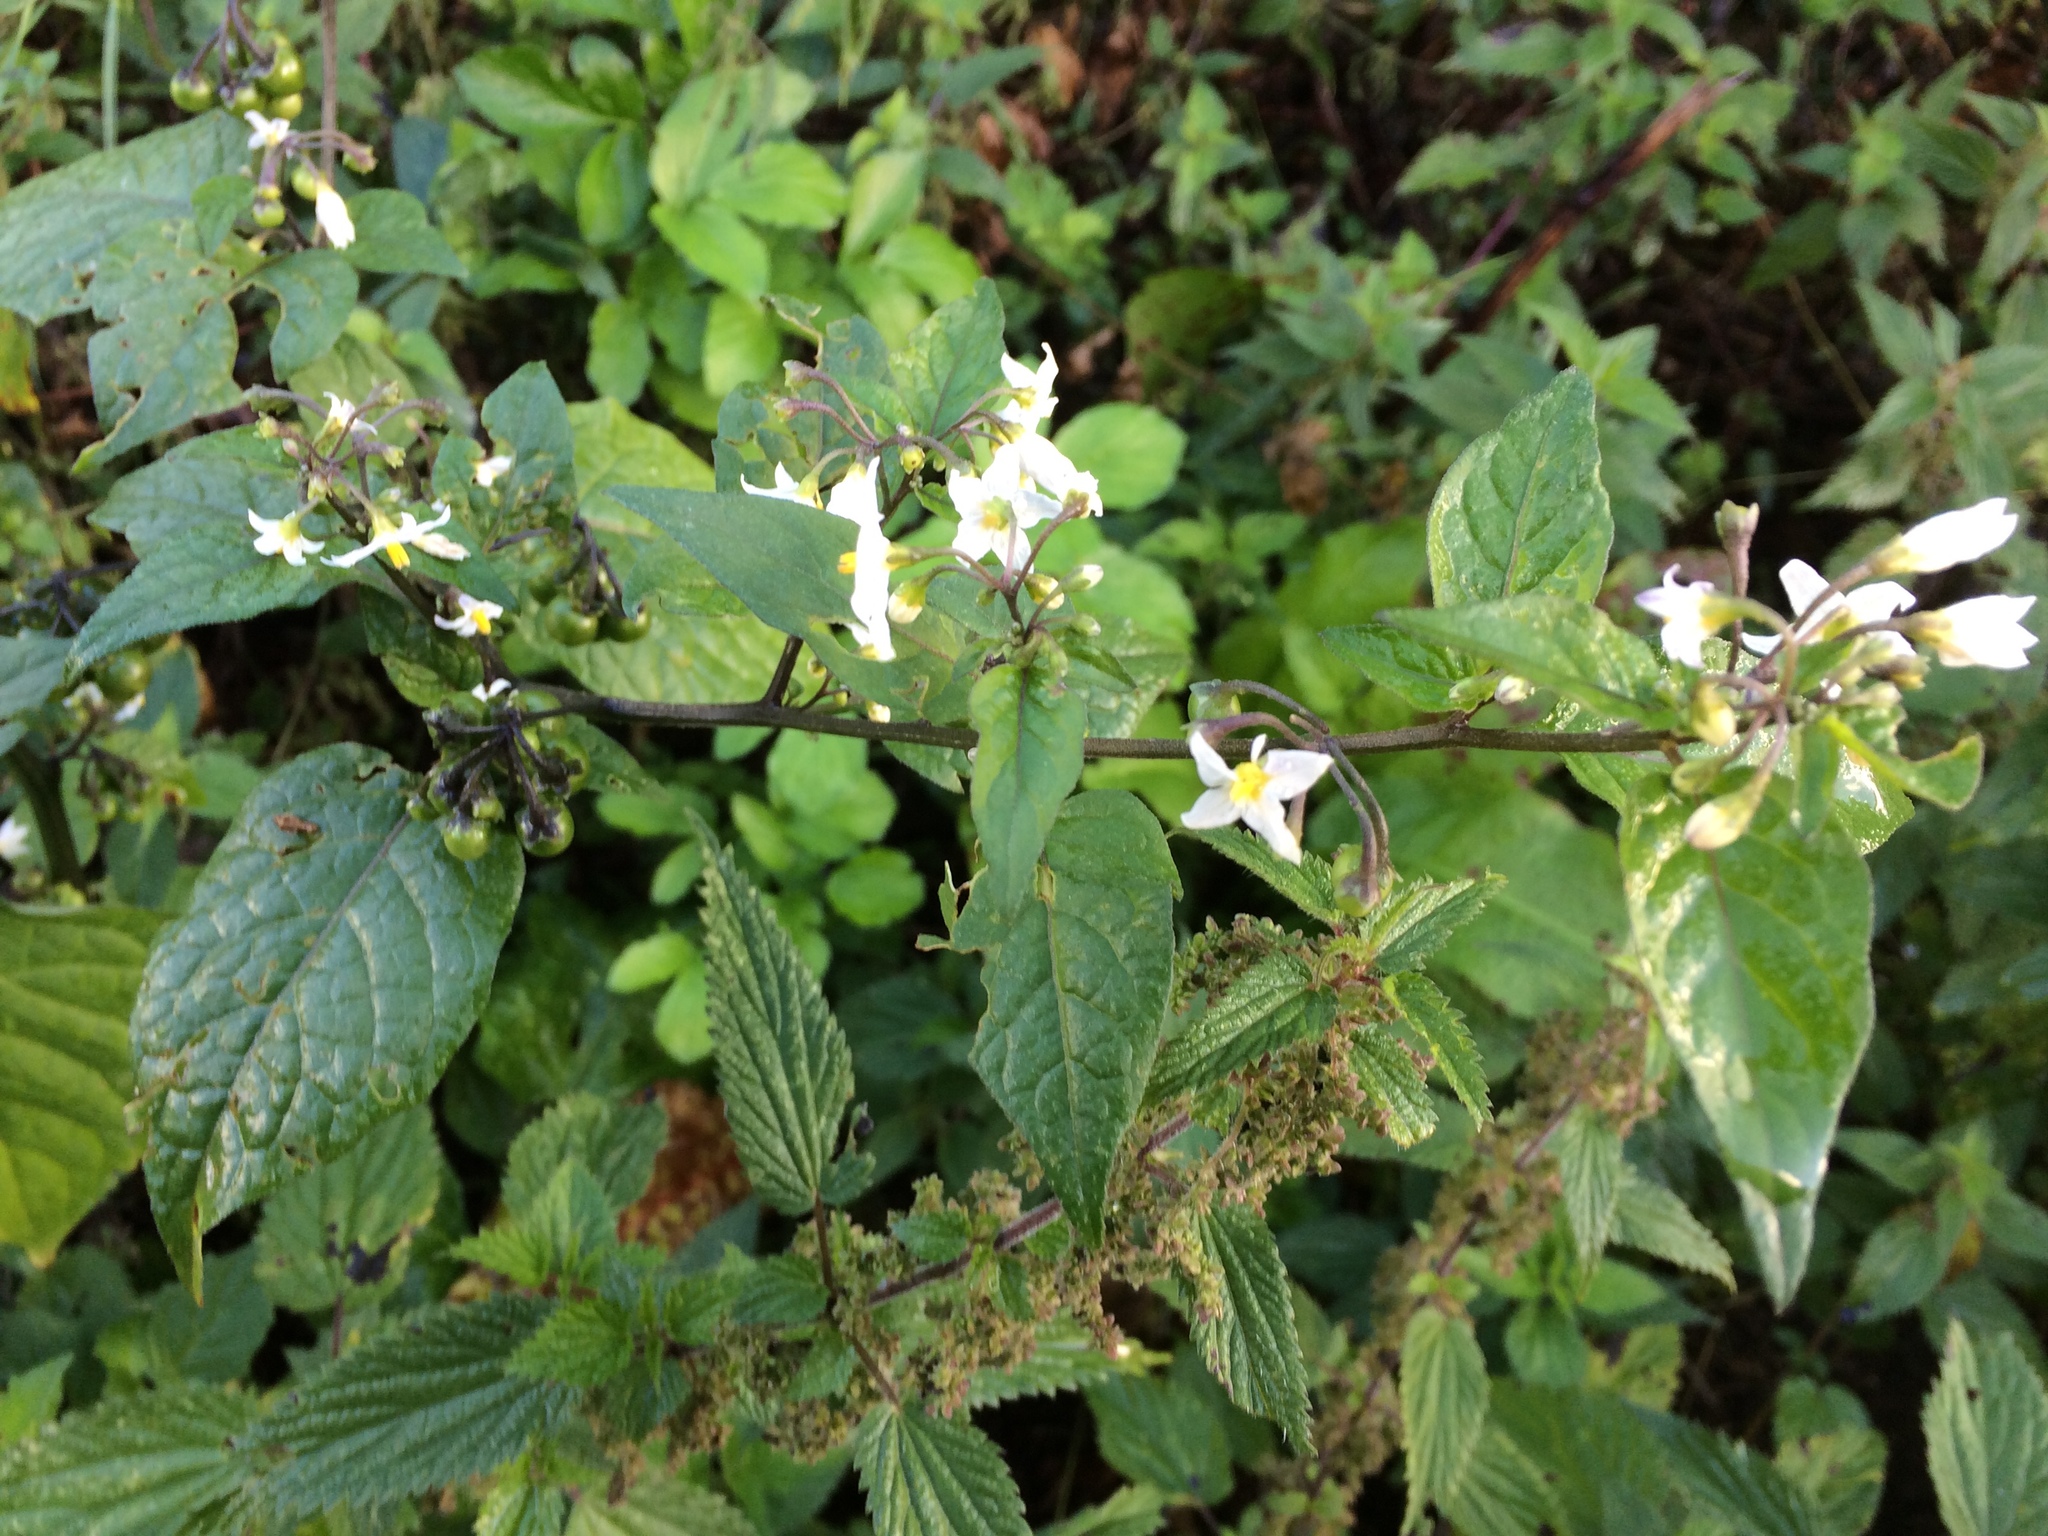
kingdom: Plantae
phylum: Tracheophyta
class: Magnoliopsida
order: Solanales
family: Solanaceae
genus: Solanum
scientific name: Solanum nigrum
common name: Black nightshade
